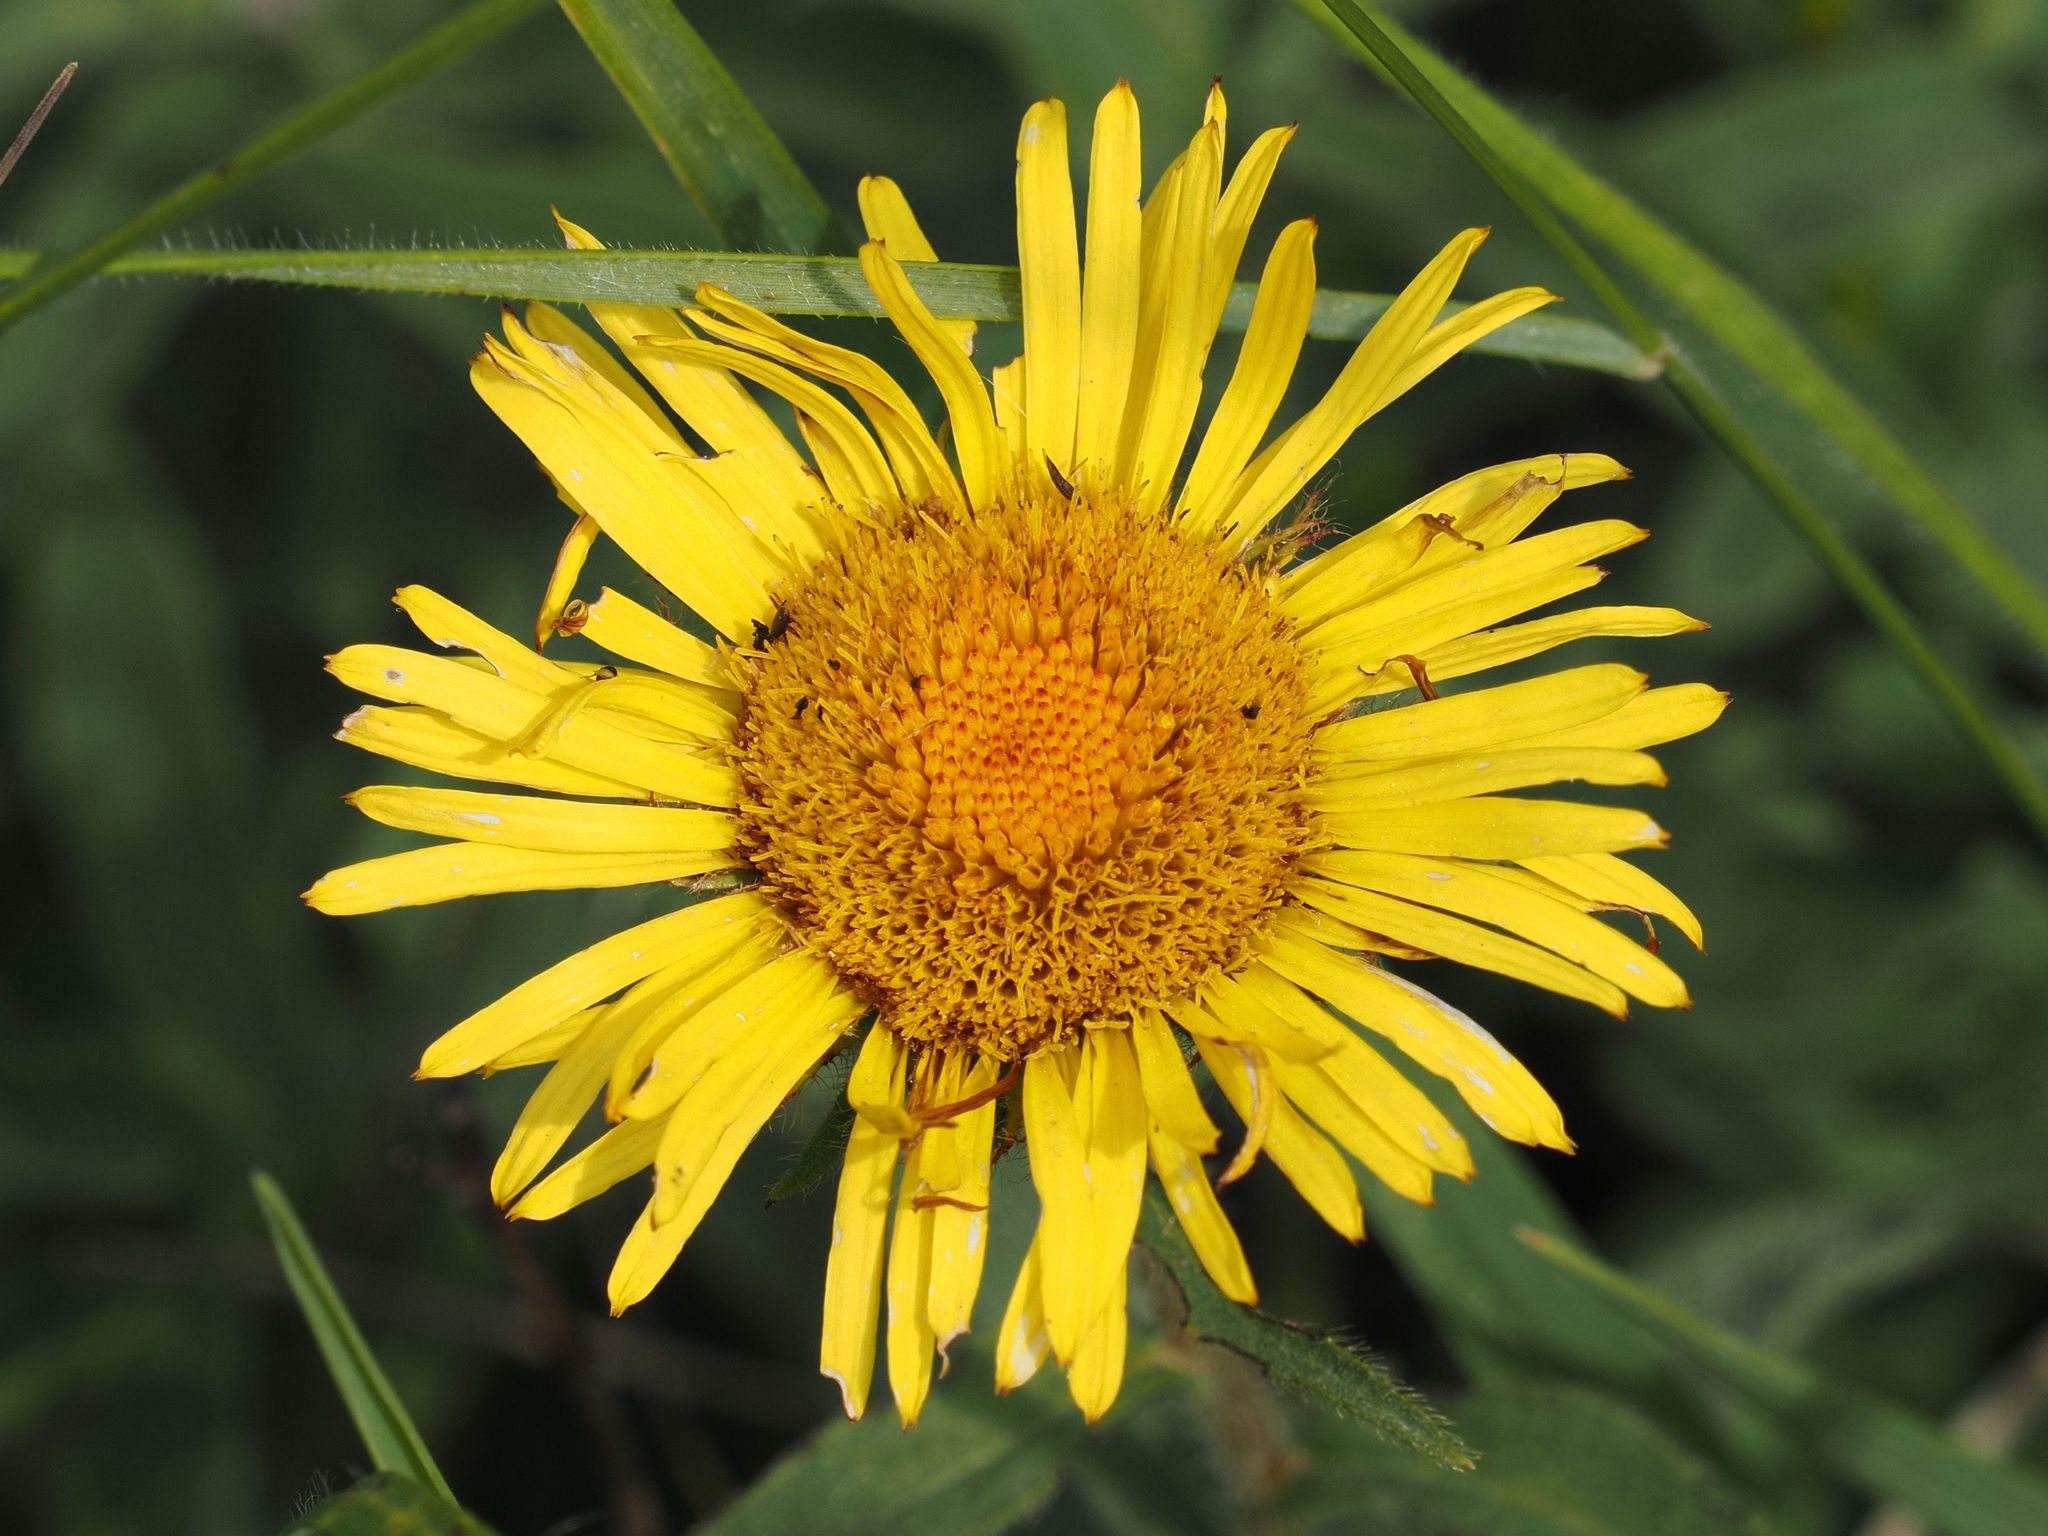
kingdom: Plantae
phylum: Tracheophyta
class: Magnoliopsida
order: Asterales
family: Asteraceae
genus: Pentanema
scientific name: Pentanema hirtum
